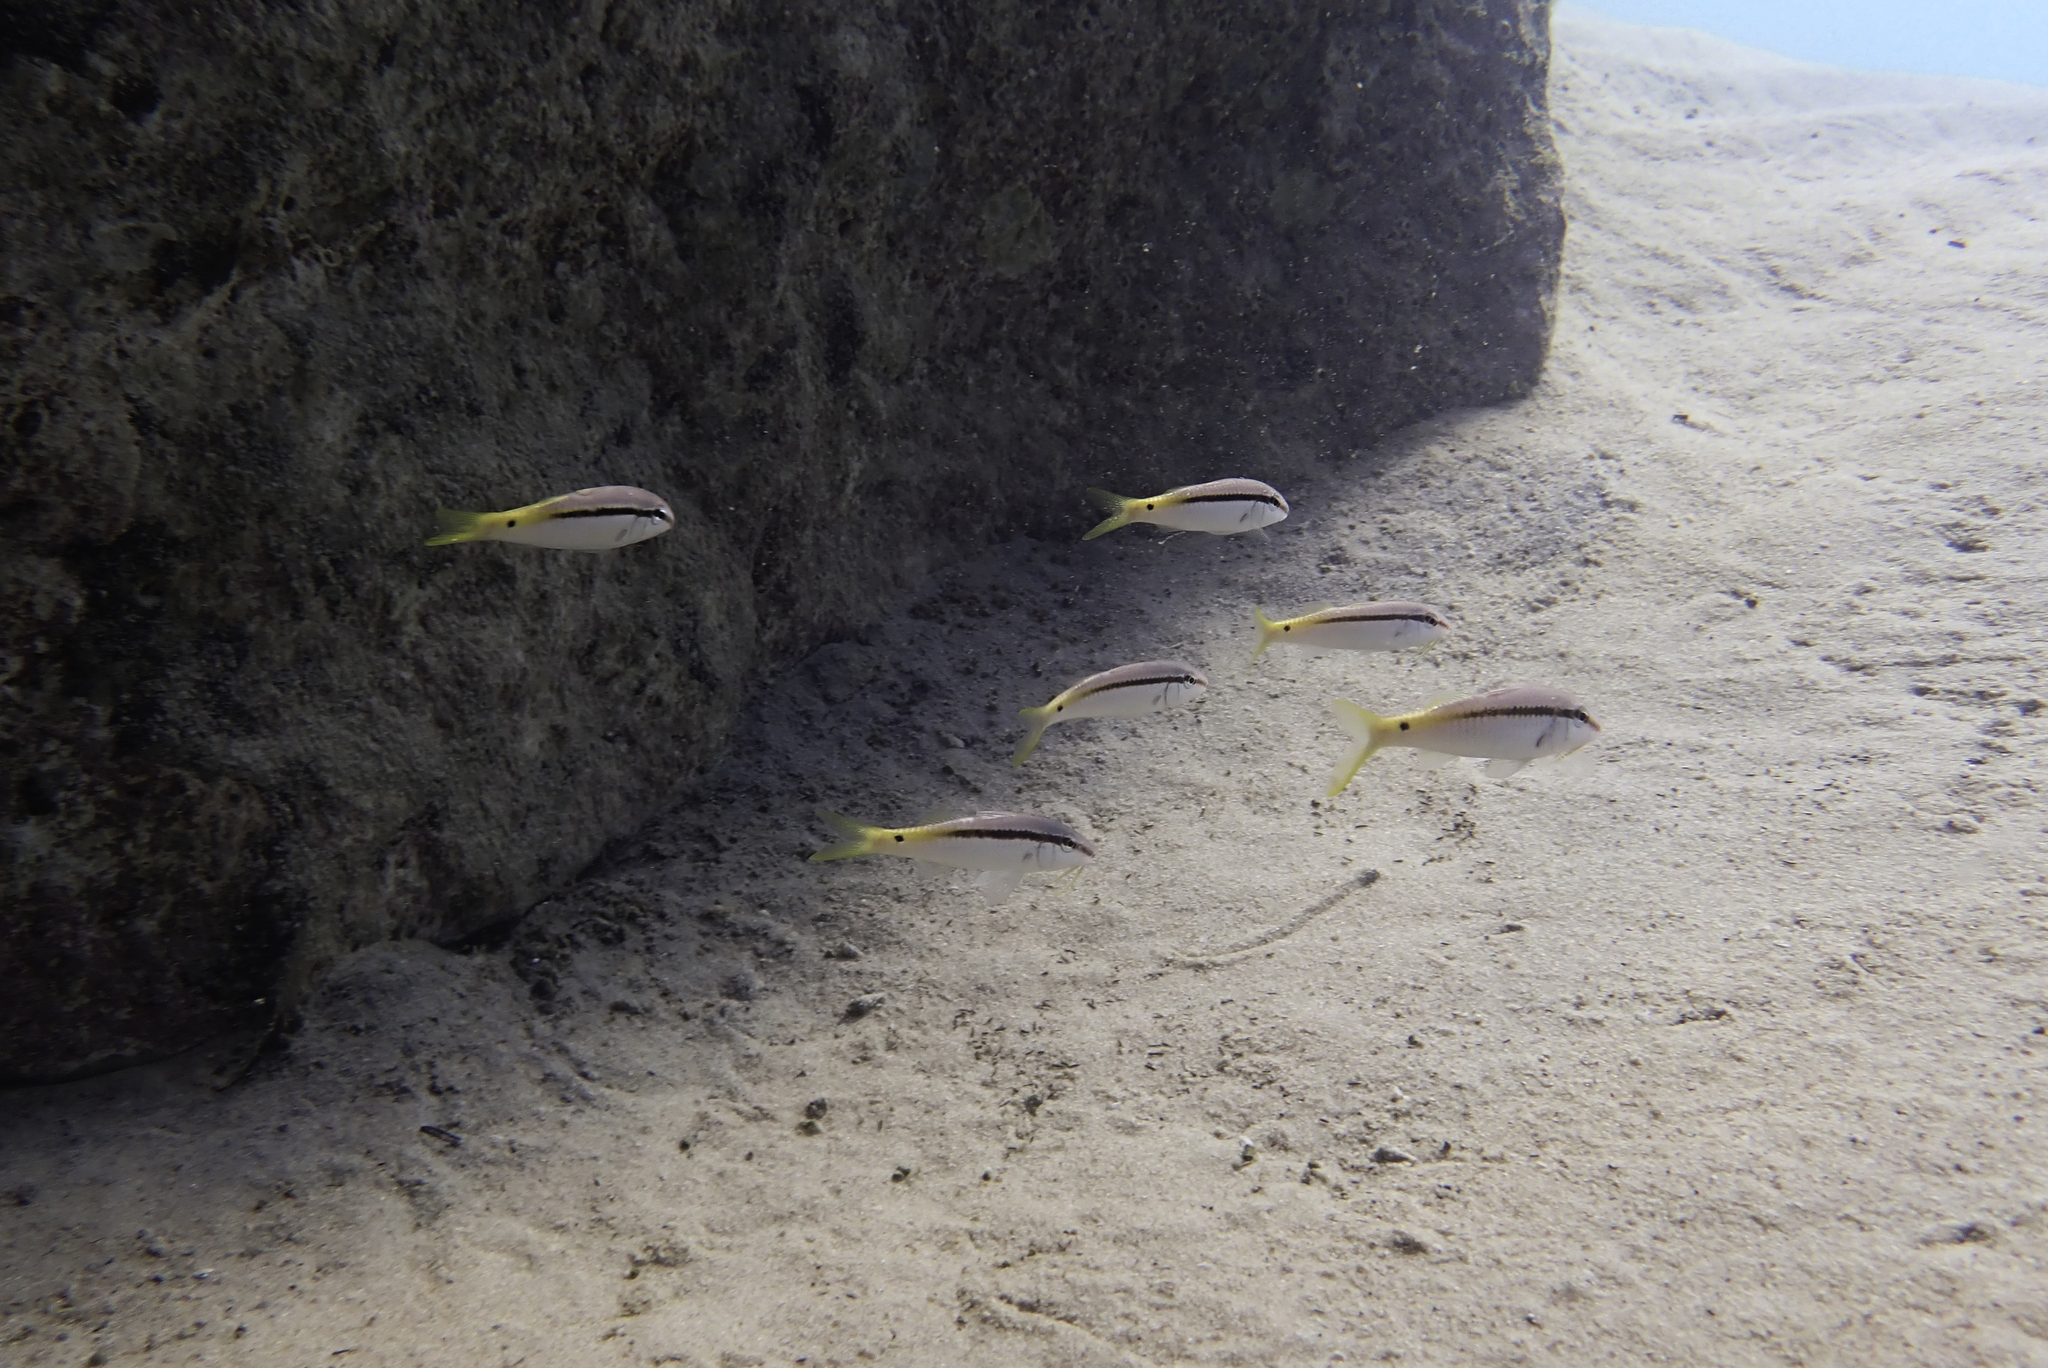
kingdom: Animalia
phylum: Chordata
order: Perciformes
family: Mullidae
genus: Parupeneus
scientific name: Parupeneus forsskali
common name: Red sea goatfish
